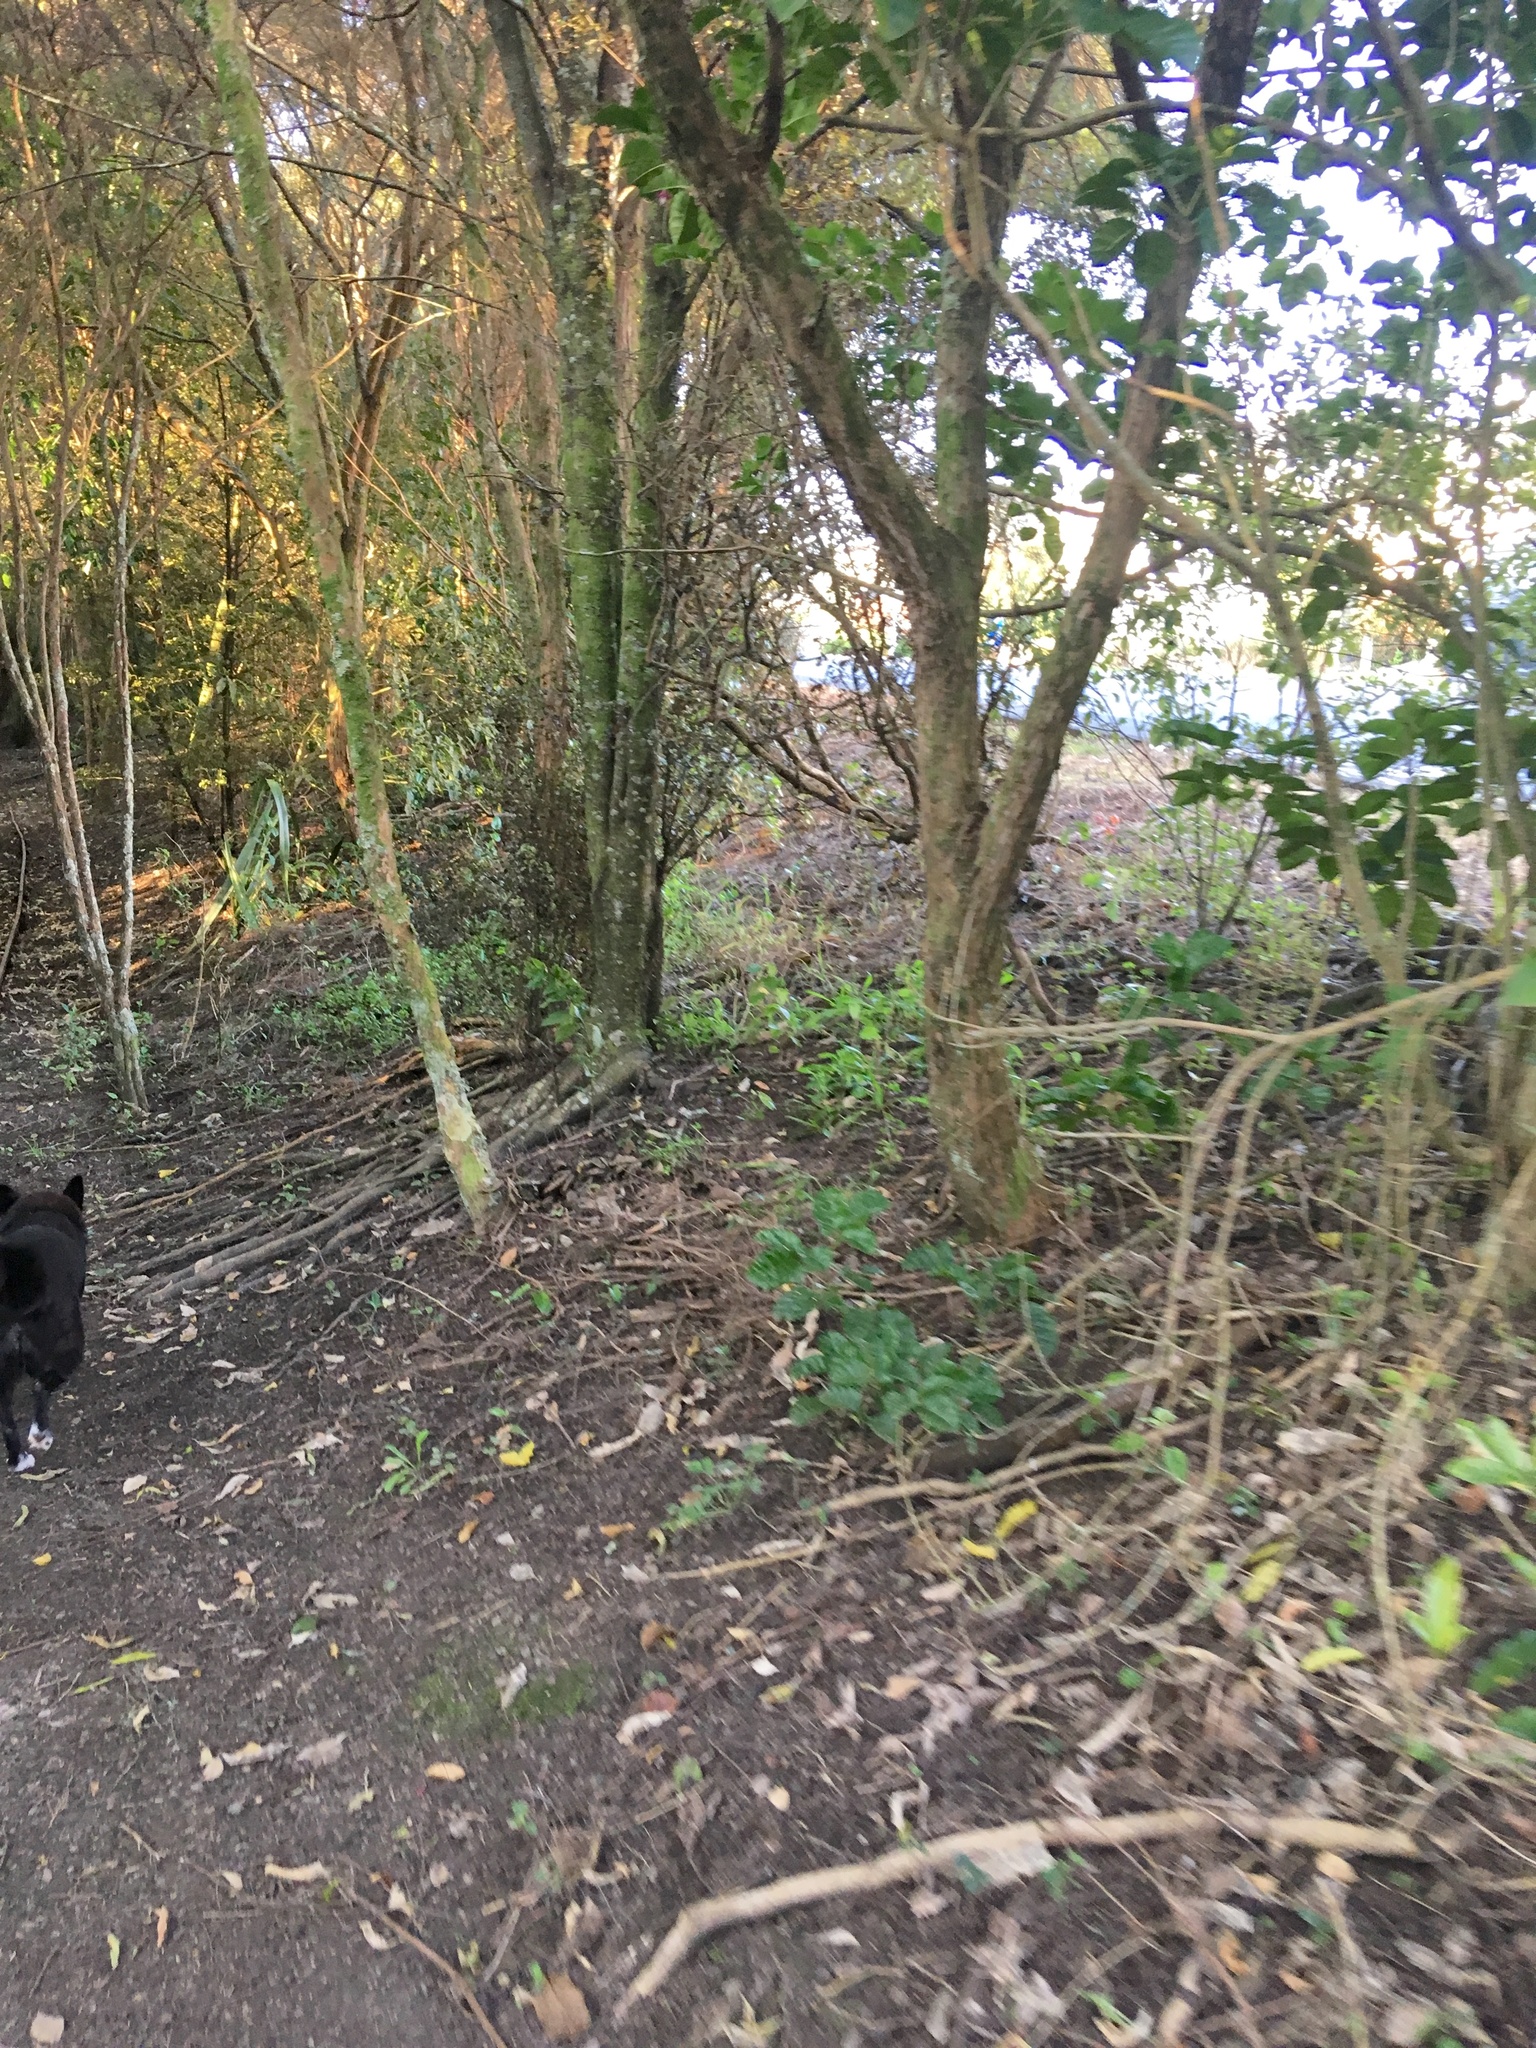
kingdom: Plantae
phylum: Tracheophyta
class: Magnoliopsida
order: Lamiales
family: Lamiaceae
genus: Vitex
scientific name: Vitex lucens
